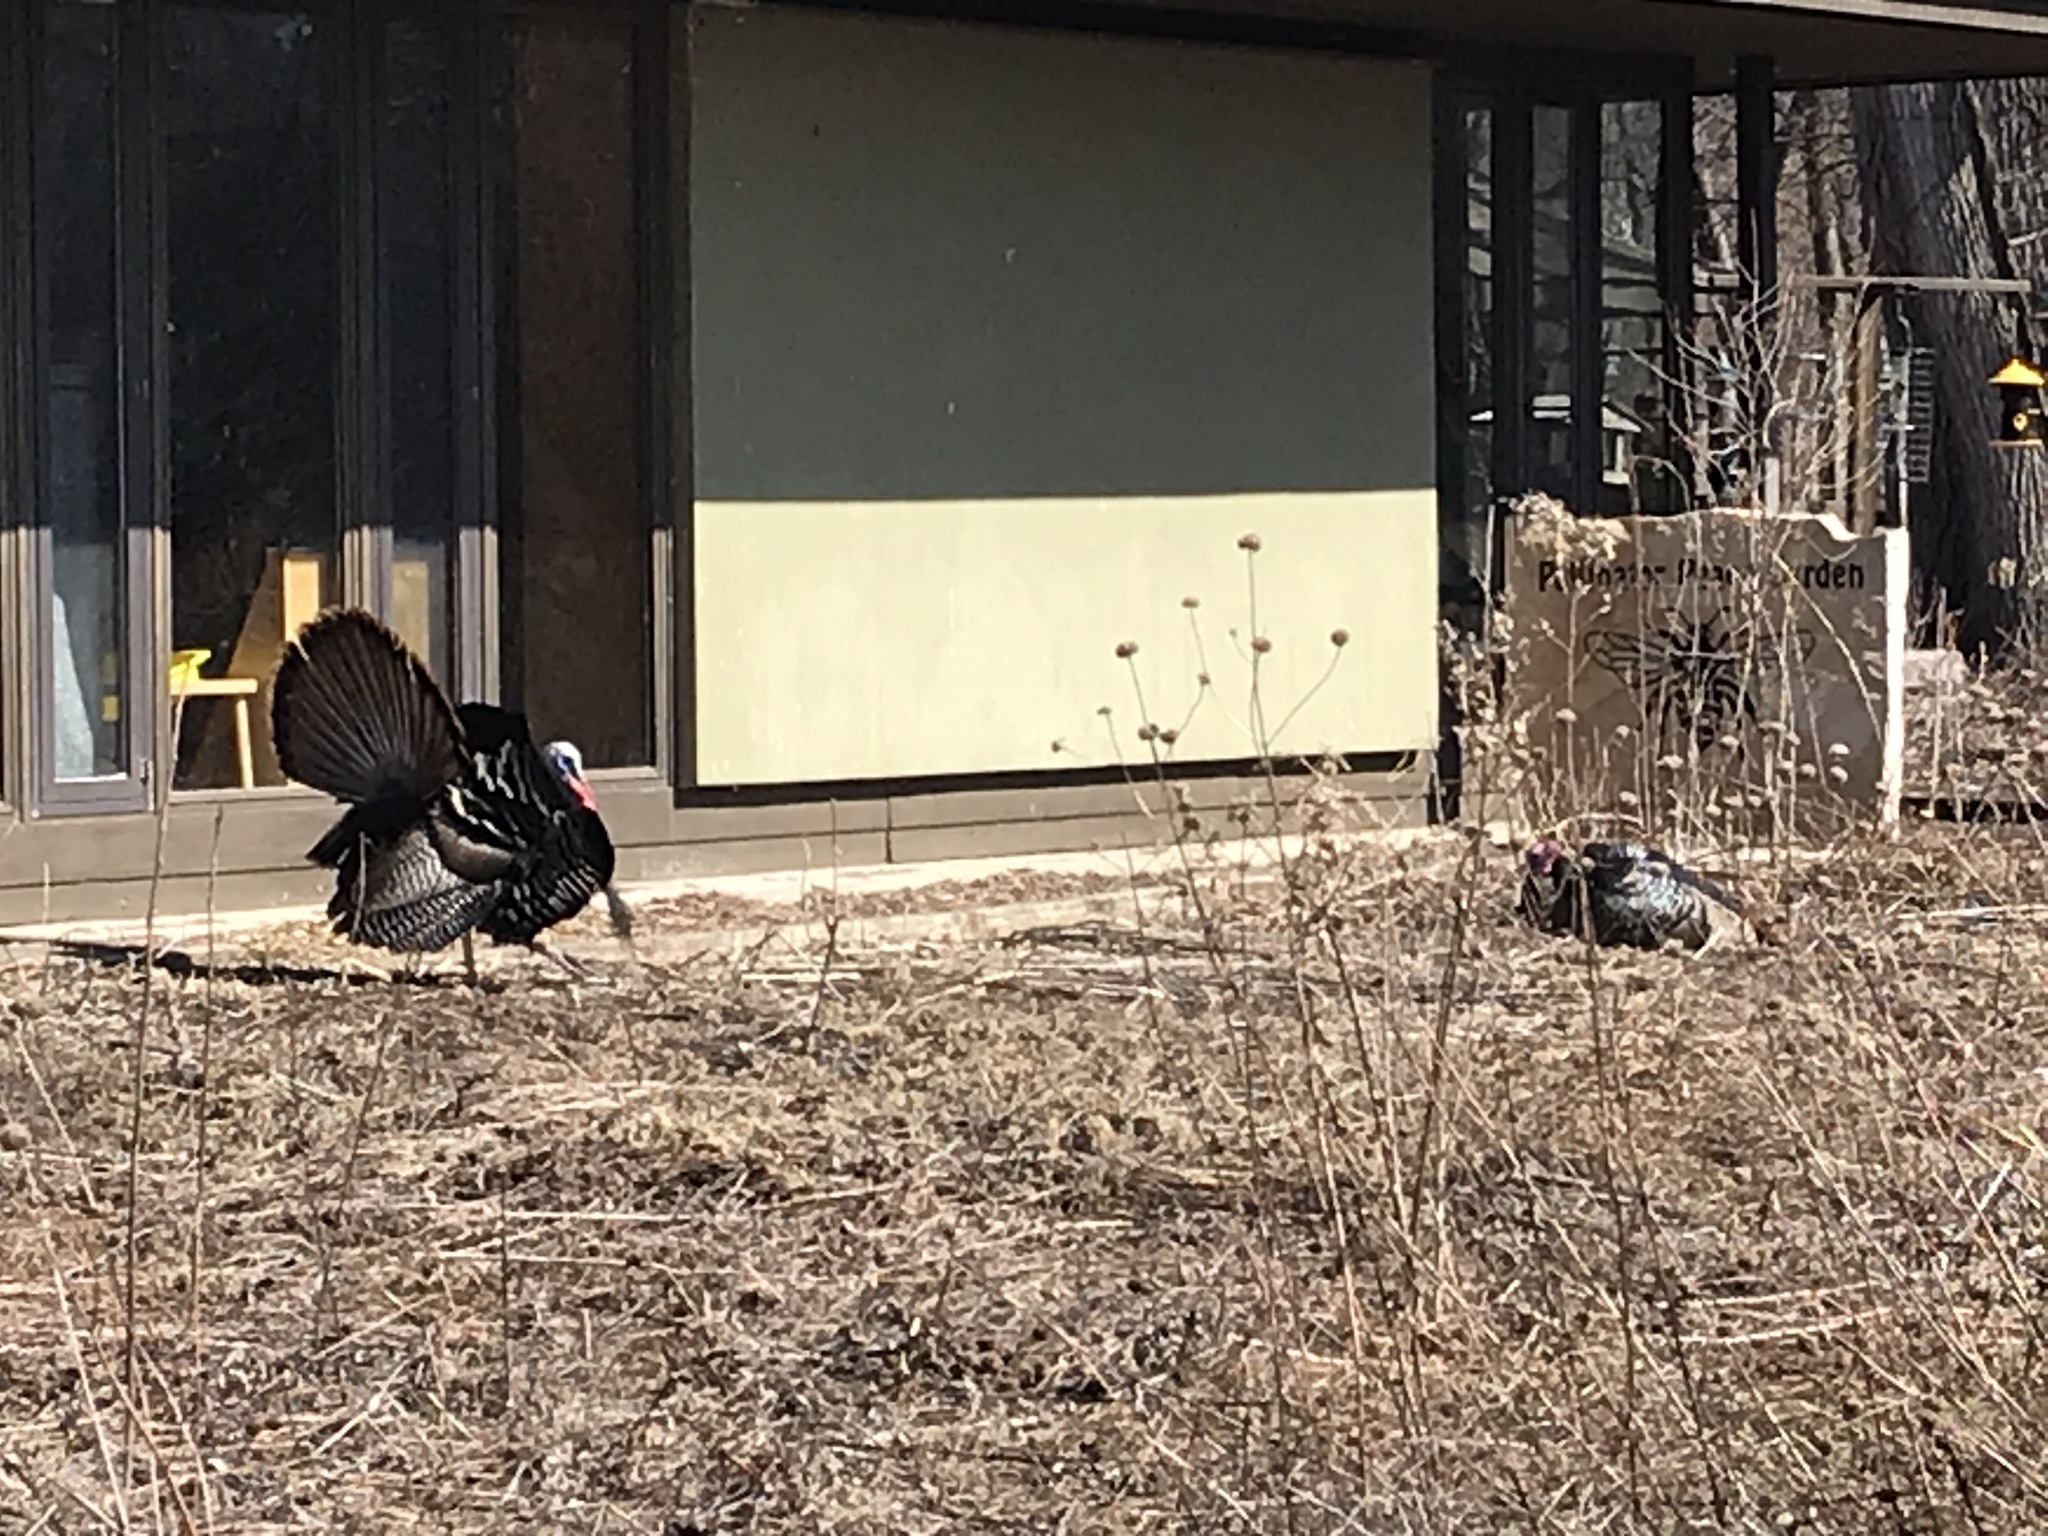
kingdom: Animalia
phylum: Chordata
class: Aves
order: Galliformes
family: Phasianidae
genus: Meleagris
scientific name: Meleagris gallopavo
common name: Wild turkey
